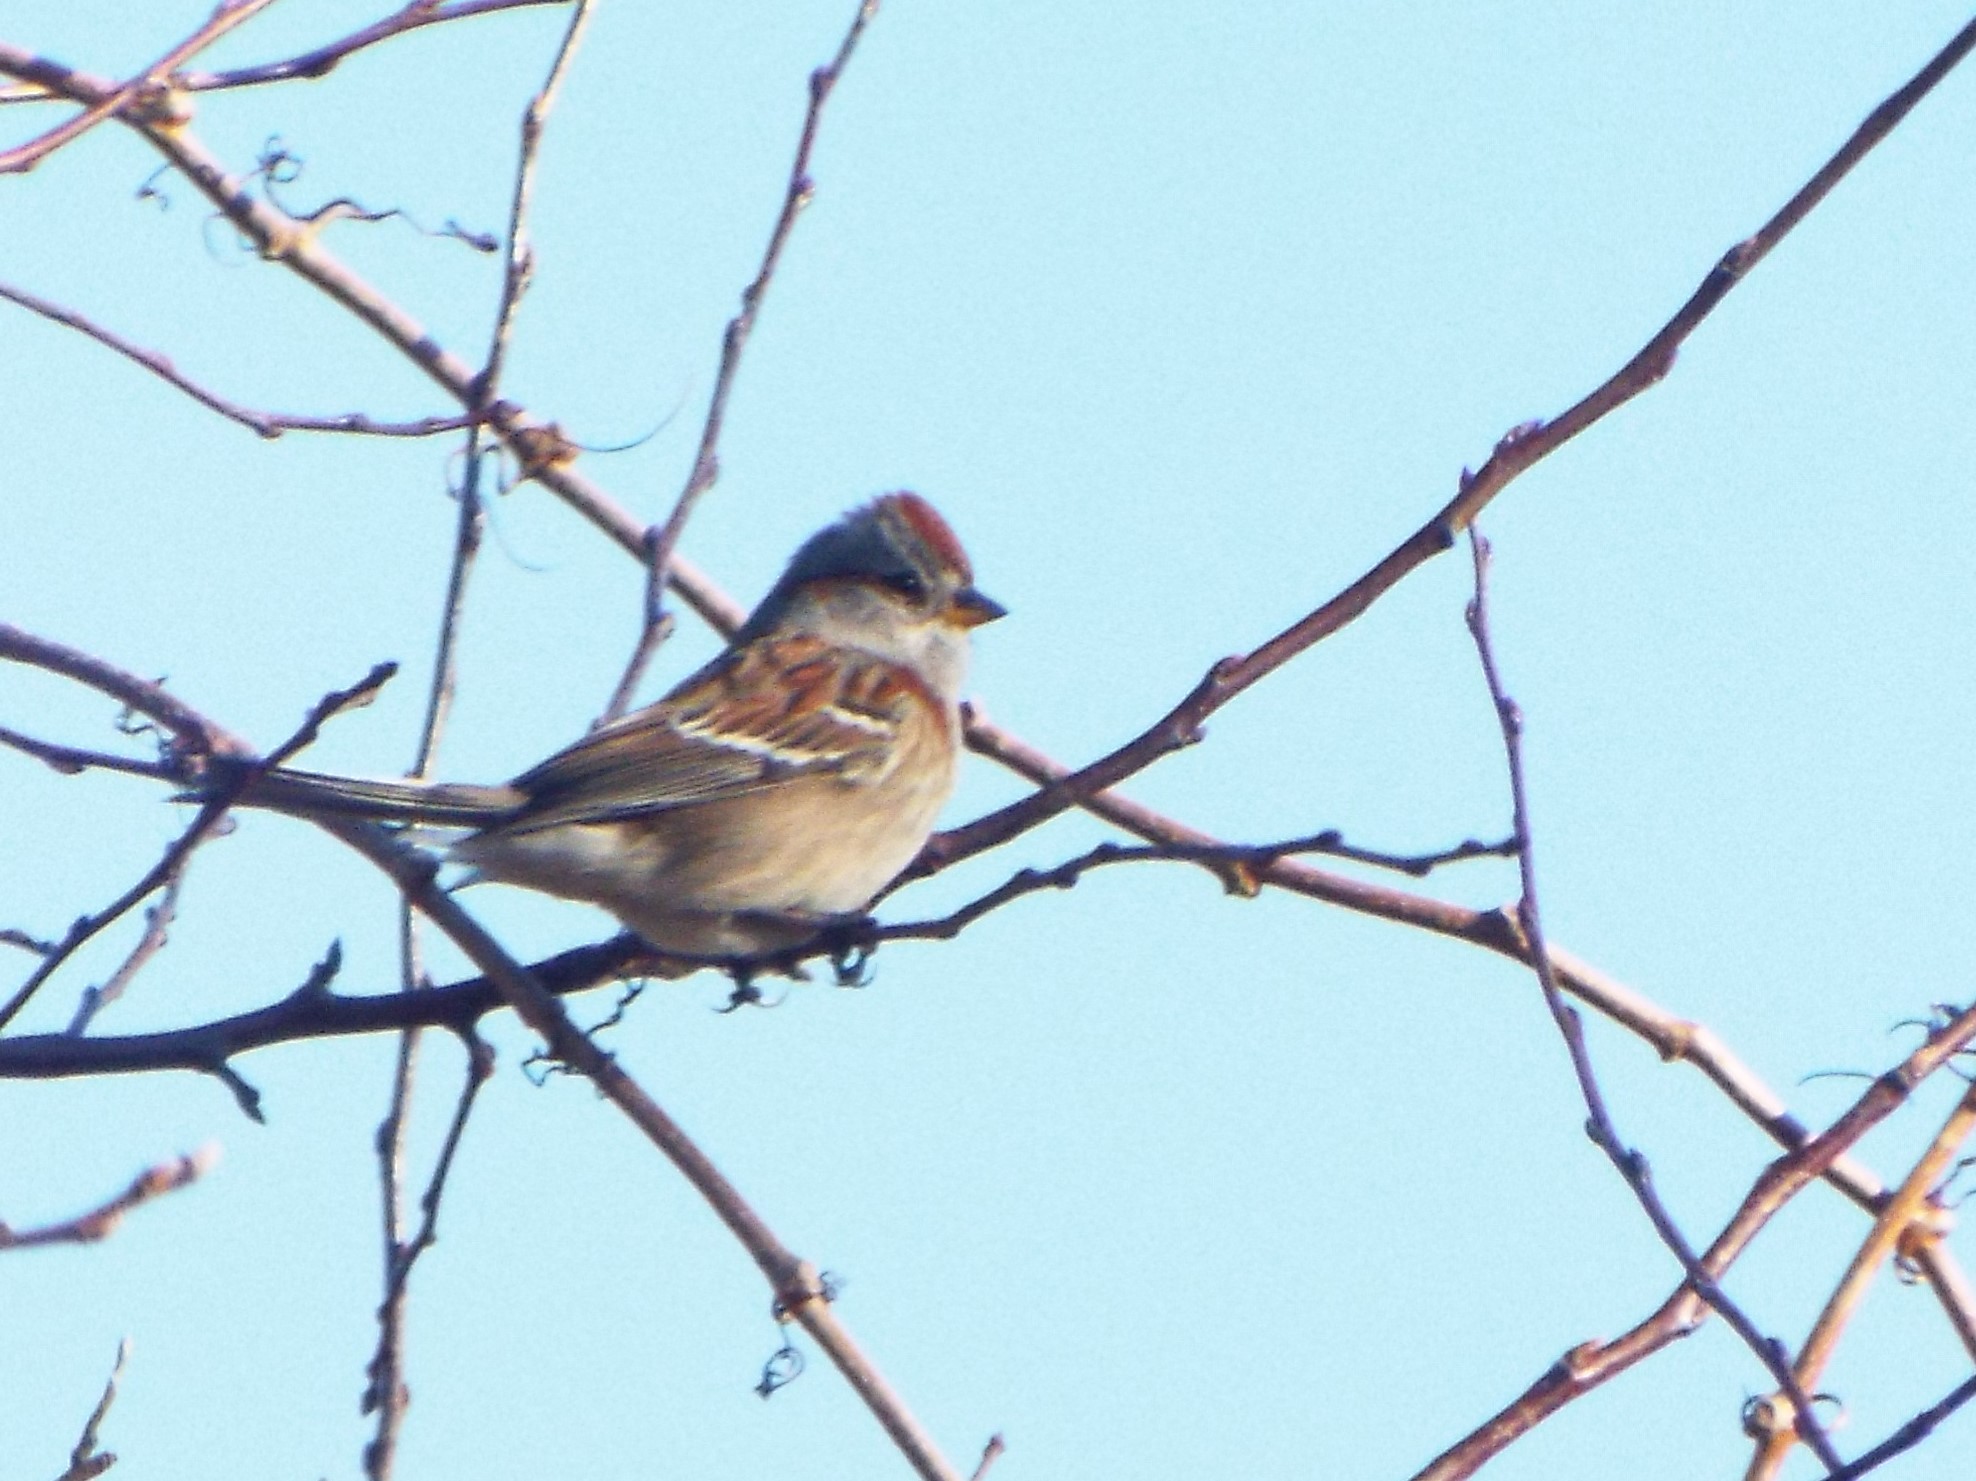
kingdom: Animalia
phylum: Chordata
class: Aves
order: Passeriformes
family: Passerellidae
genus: Spizelloides
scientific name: Spizelloides arborea
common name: American tree sparrow
